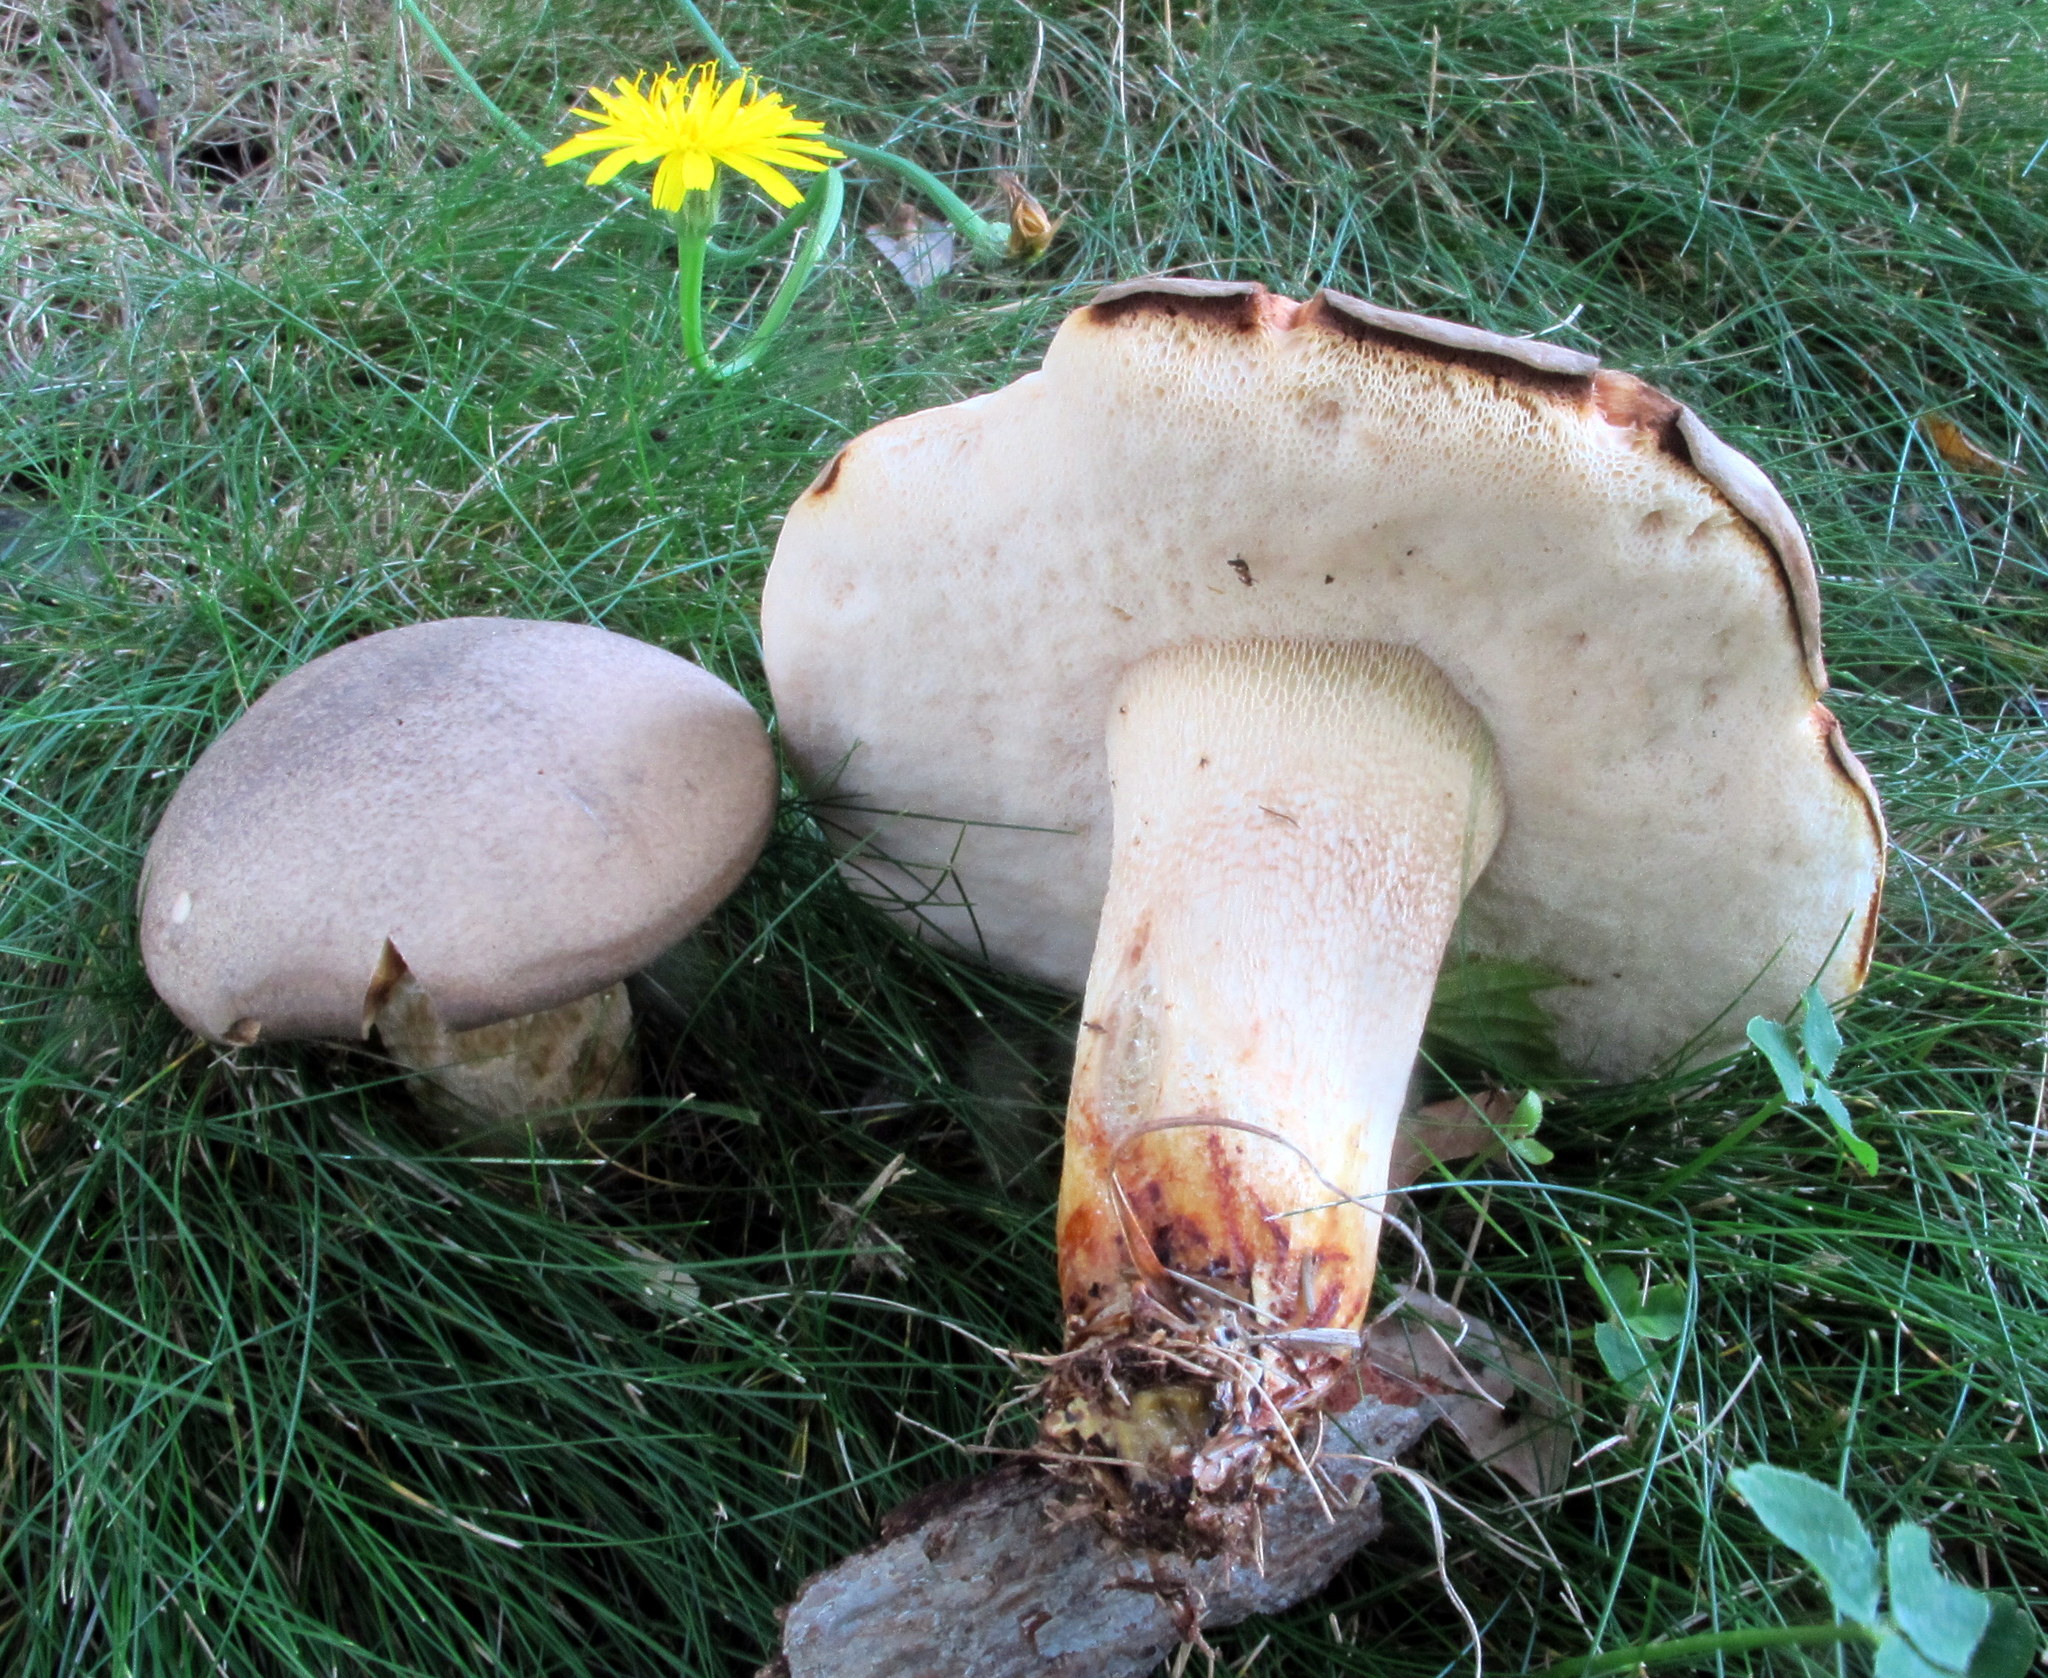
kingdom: Fungi
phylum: Basidiomycota
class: Agaricomycetes
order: Boletales
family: Boletaceae
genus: Retiboletus
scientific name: Retiboletus griseus
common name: Grey bolete
